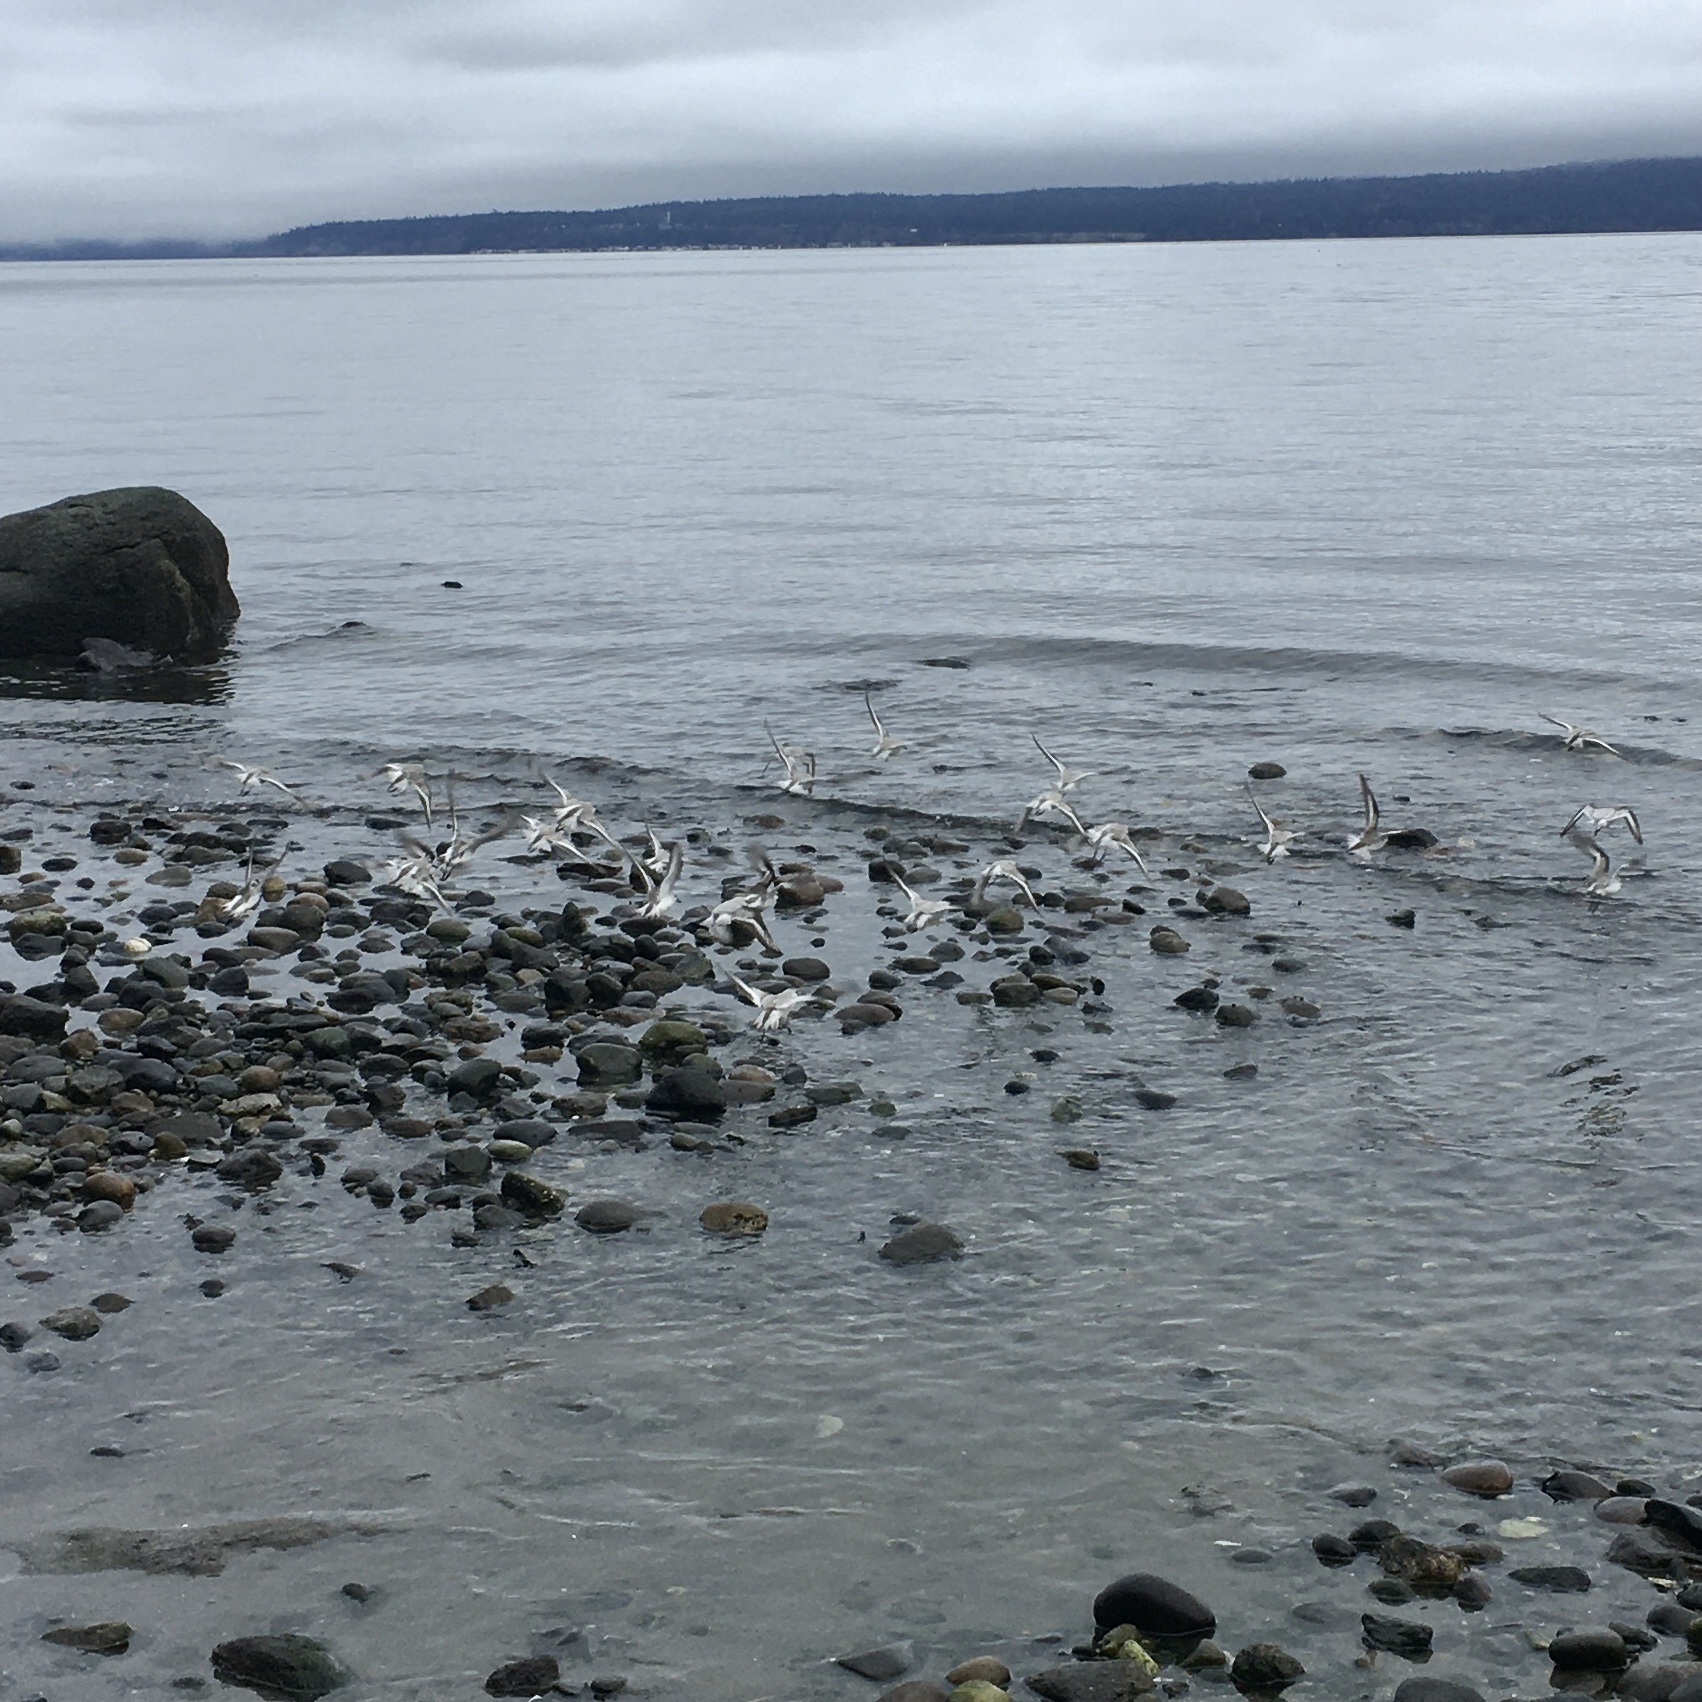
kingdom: Animalia
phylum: Chordata
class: Aves
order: Charadriiformes
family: Scolopacidae
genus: Calidris
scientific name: Calidris alba
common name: Sanderling
